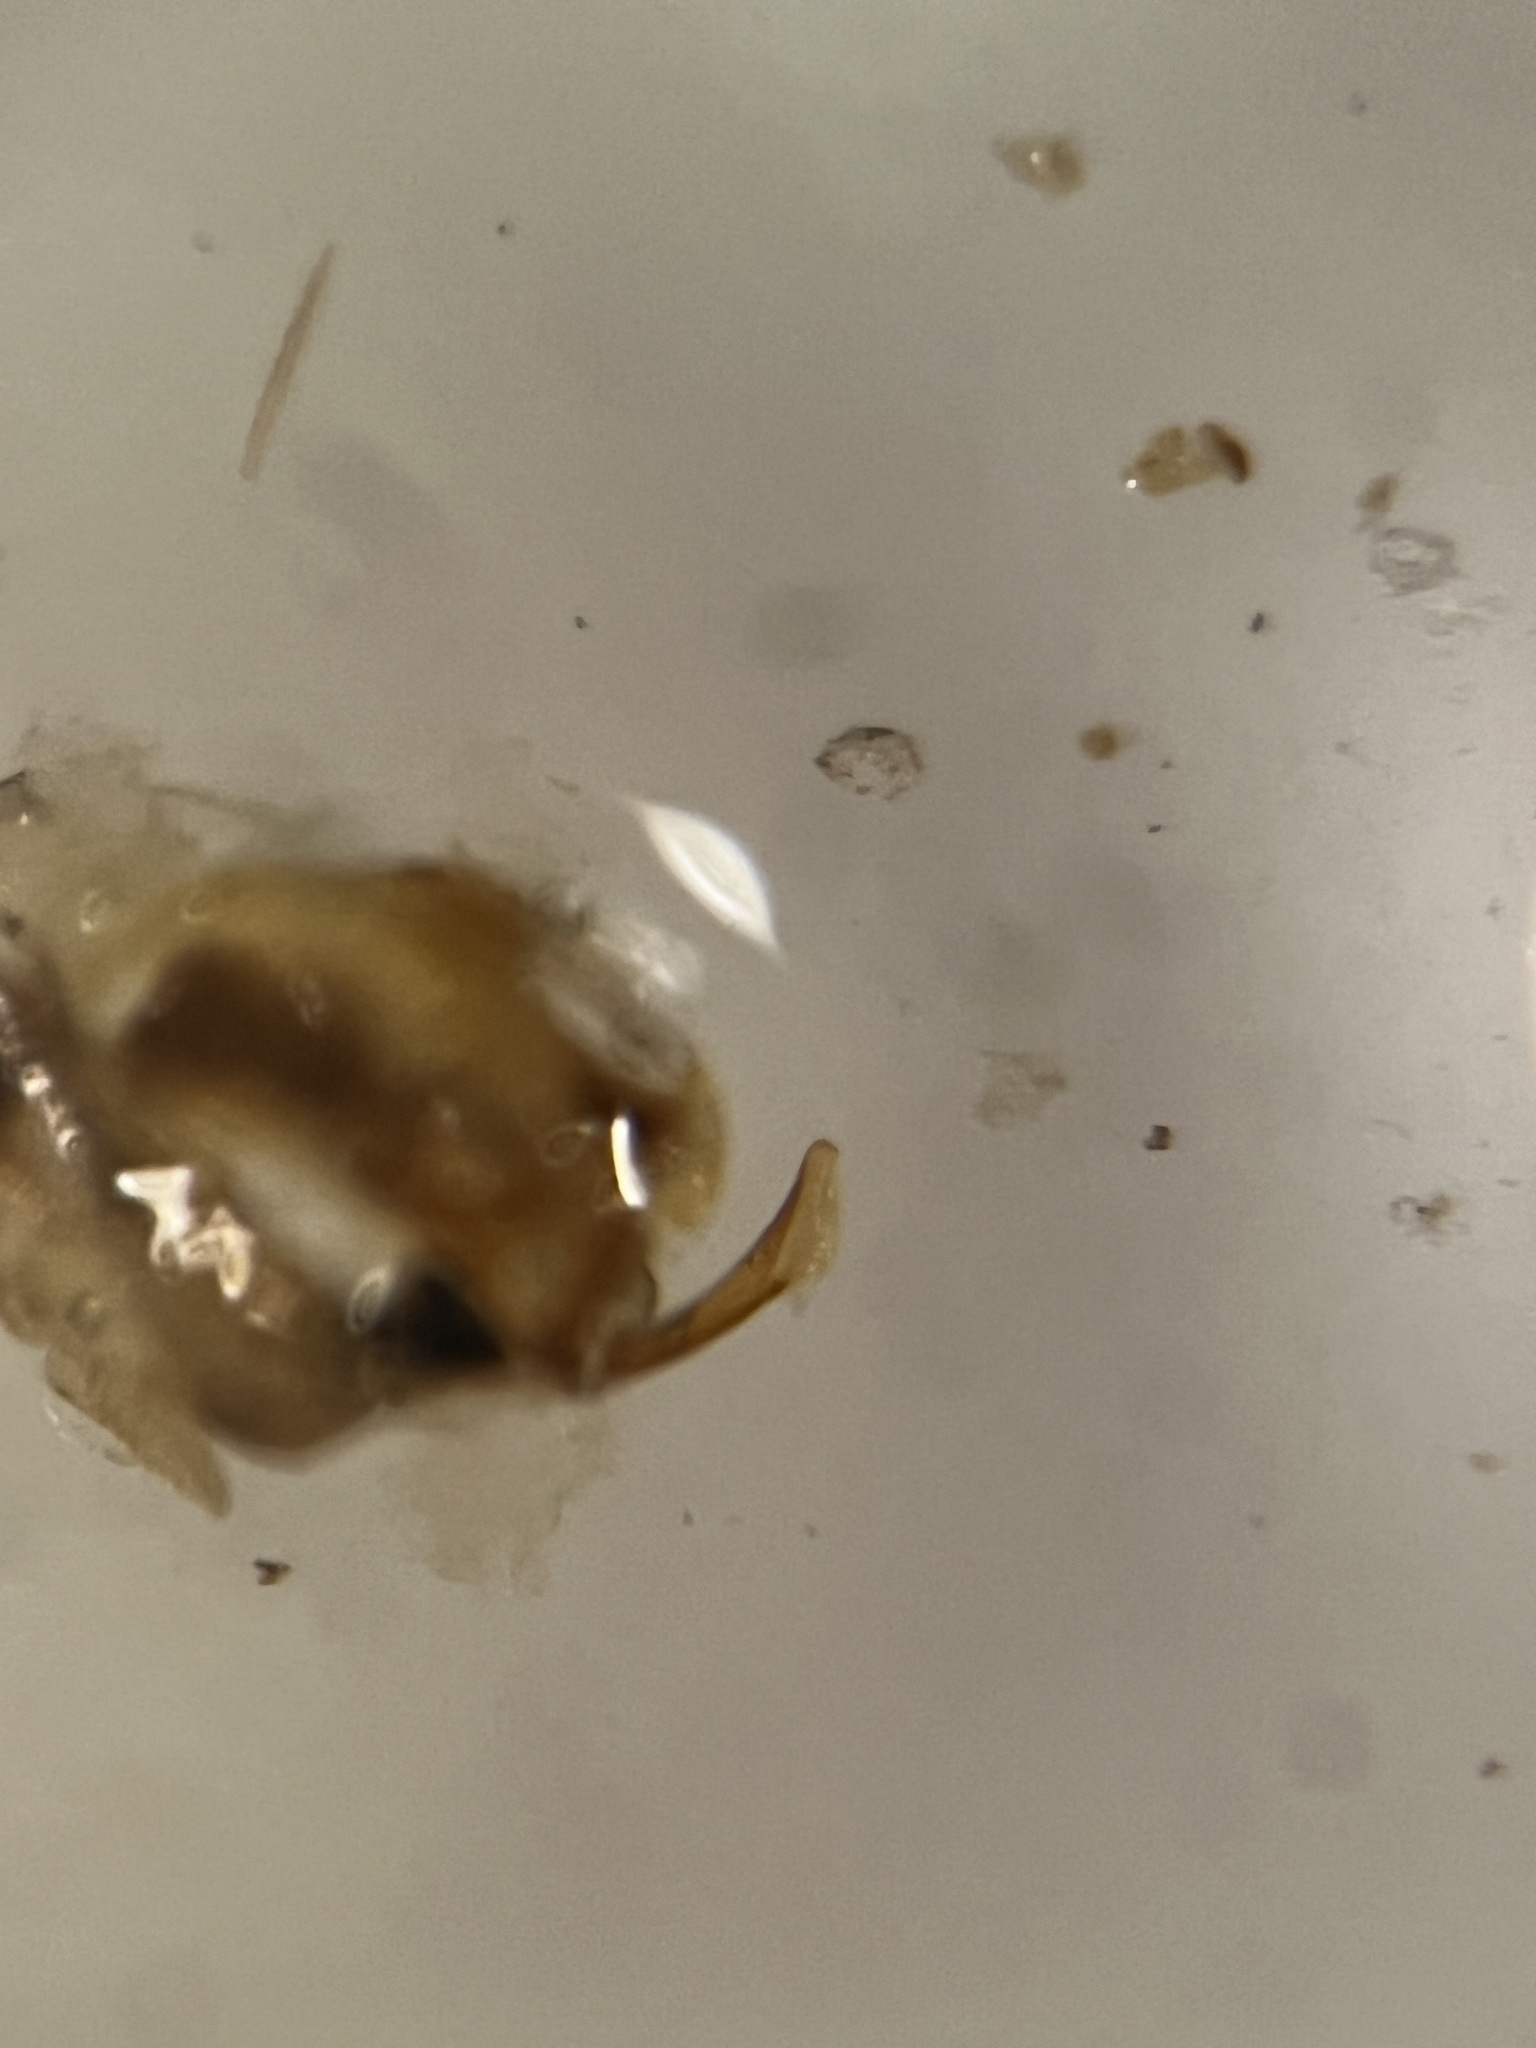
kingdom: Animalia
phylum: Arthropoda
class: Insecta
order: Hemiptera
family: Cicadellidae
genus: Psammotettix
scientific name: Psammotettix helvolus
